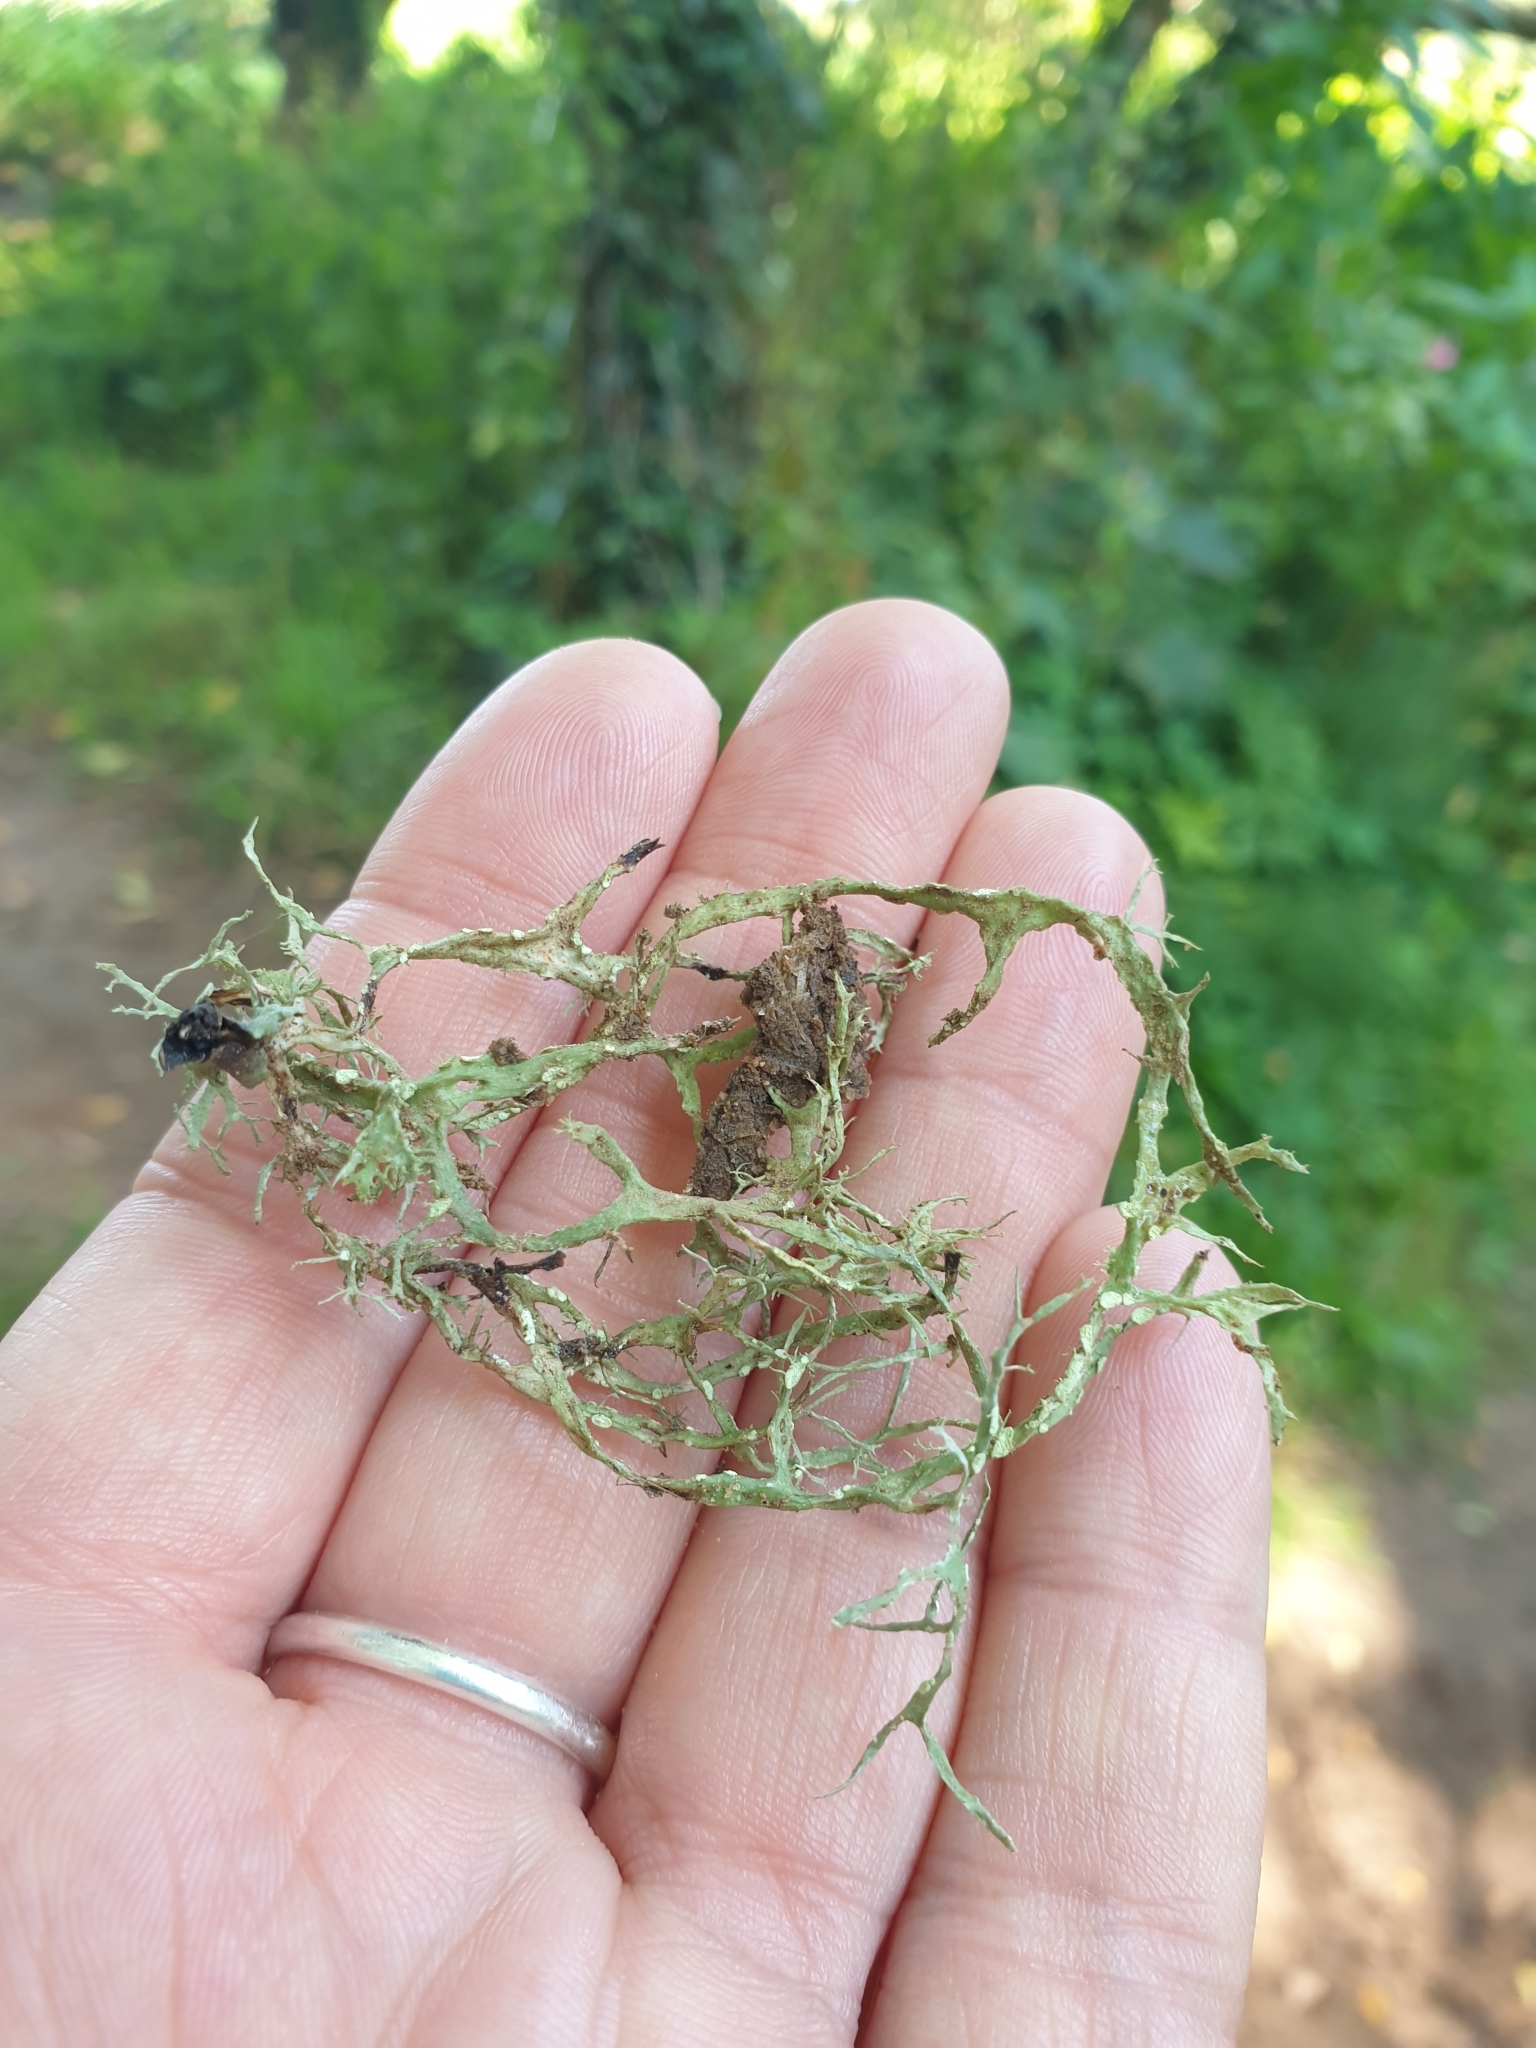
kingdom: Fungi
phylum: Ascomycota
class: Lecanoromycetes
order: Lecanorales
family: Ramalinaceae
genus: Ramalina
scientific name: Ramalina farinacea
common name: Farinose cartilage lichen
